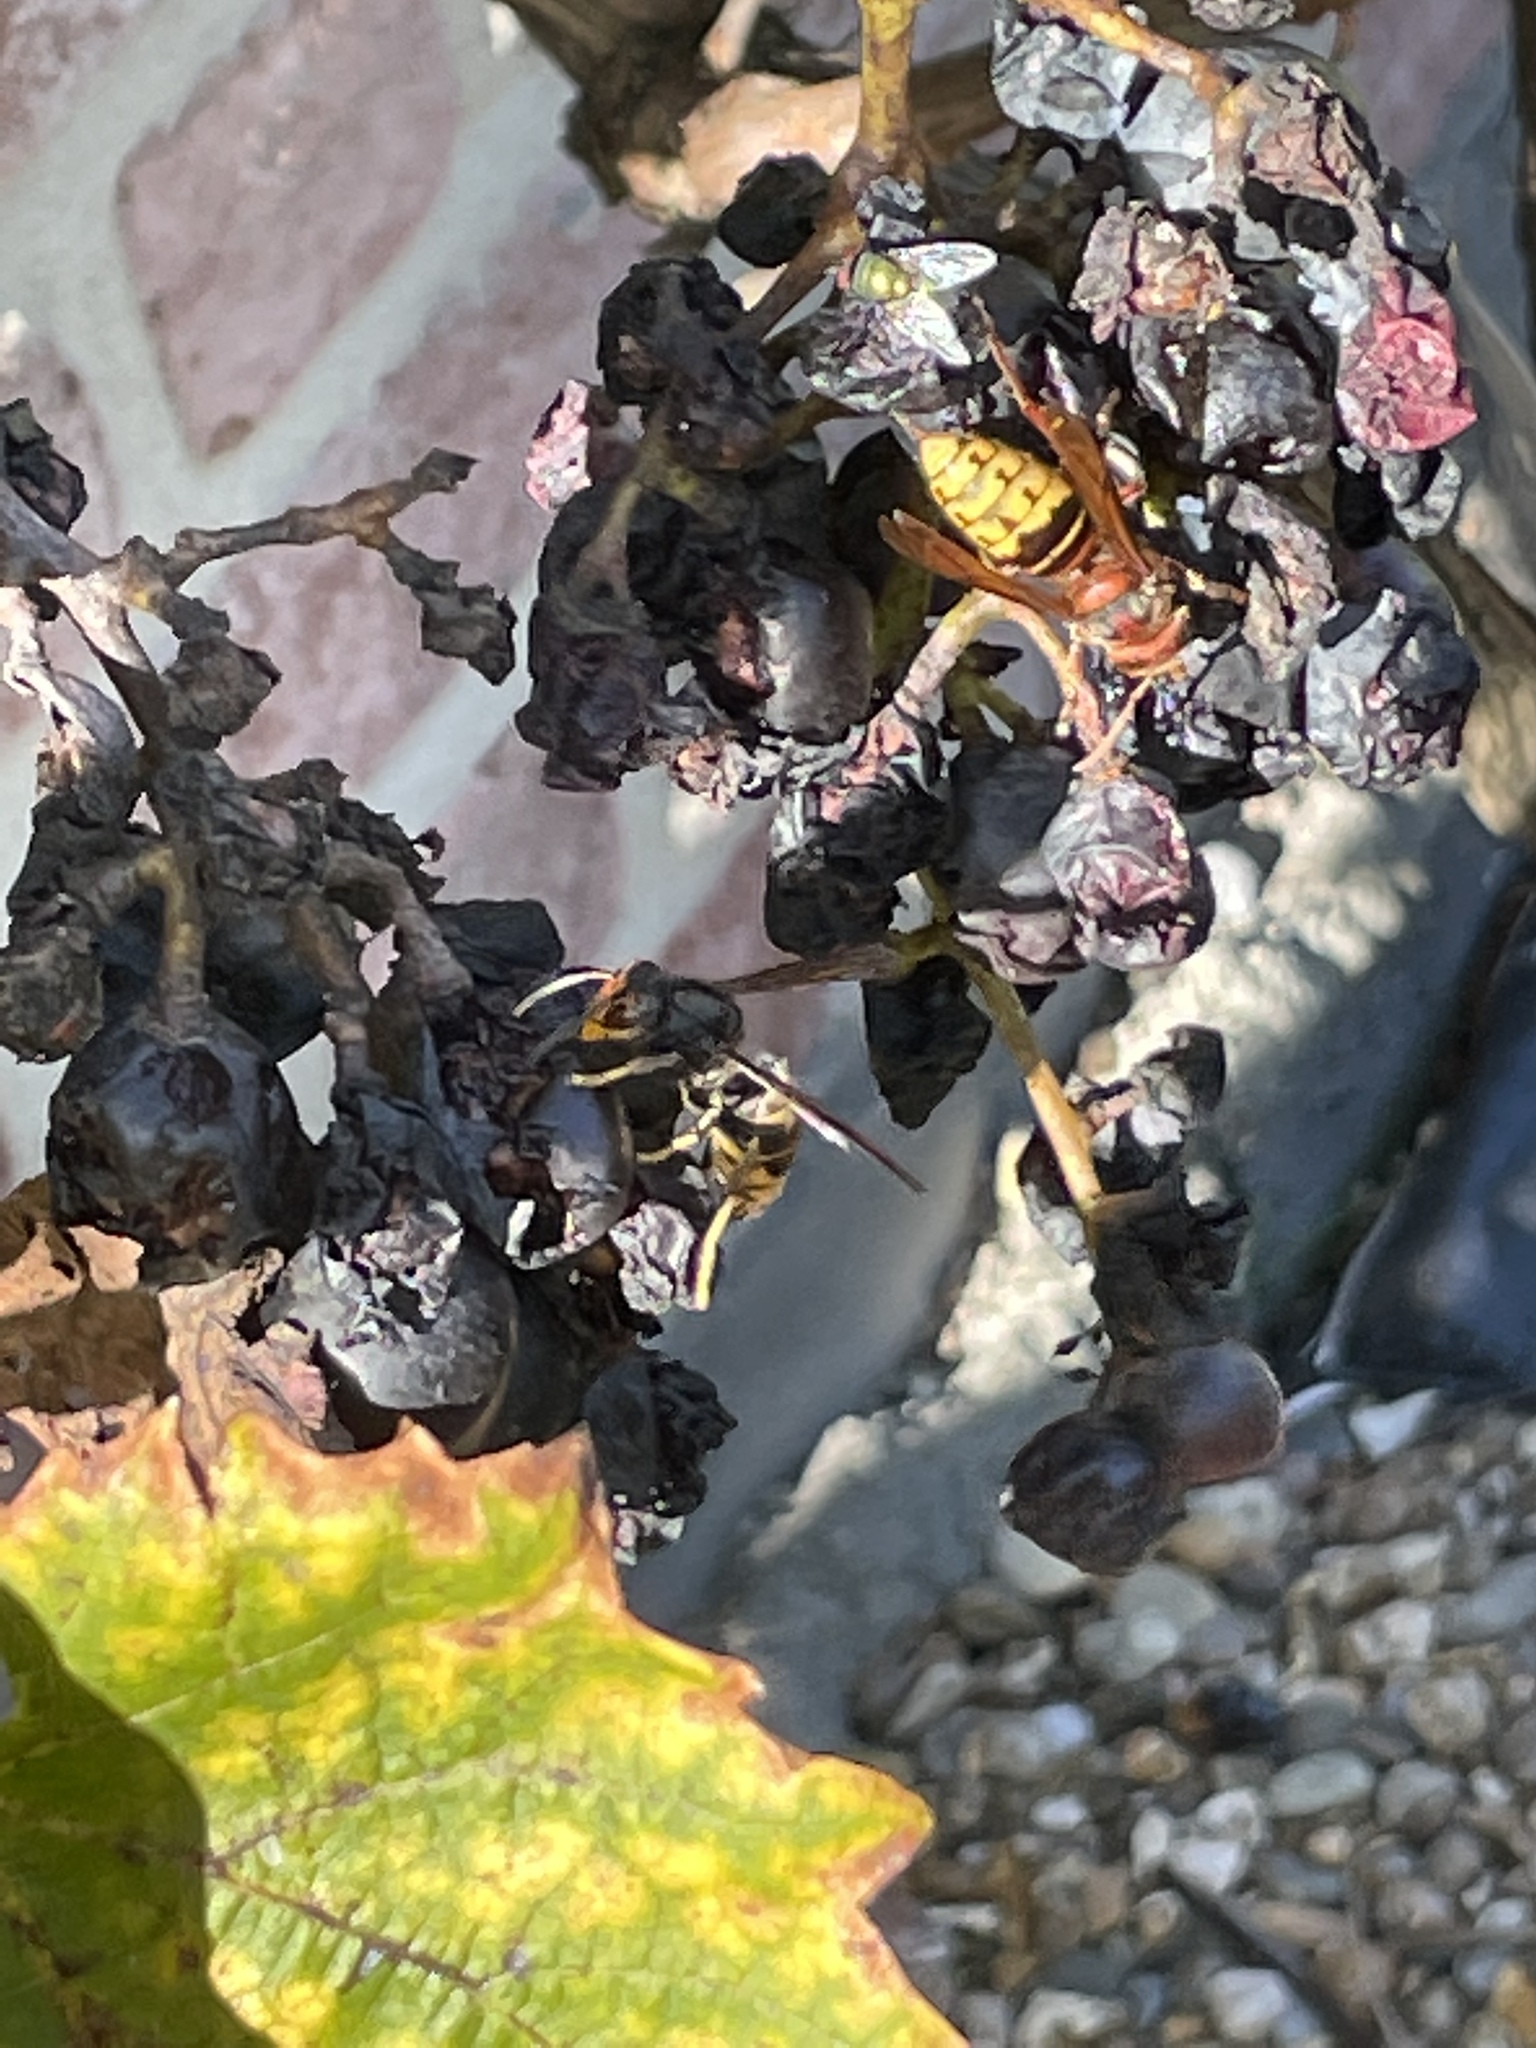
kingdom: Animalia
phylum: Arthropoda
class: Insecta
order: Hymenoptera
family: Vespidae
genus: Vespa
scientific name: Vespa velutina
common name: Asian hornet
